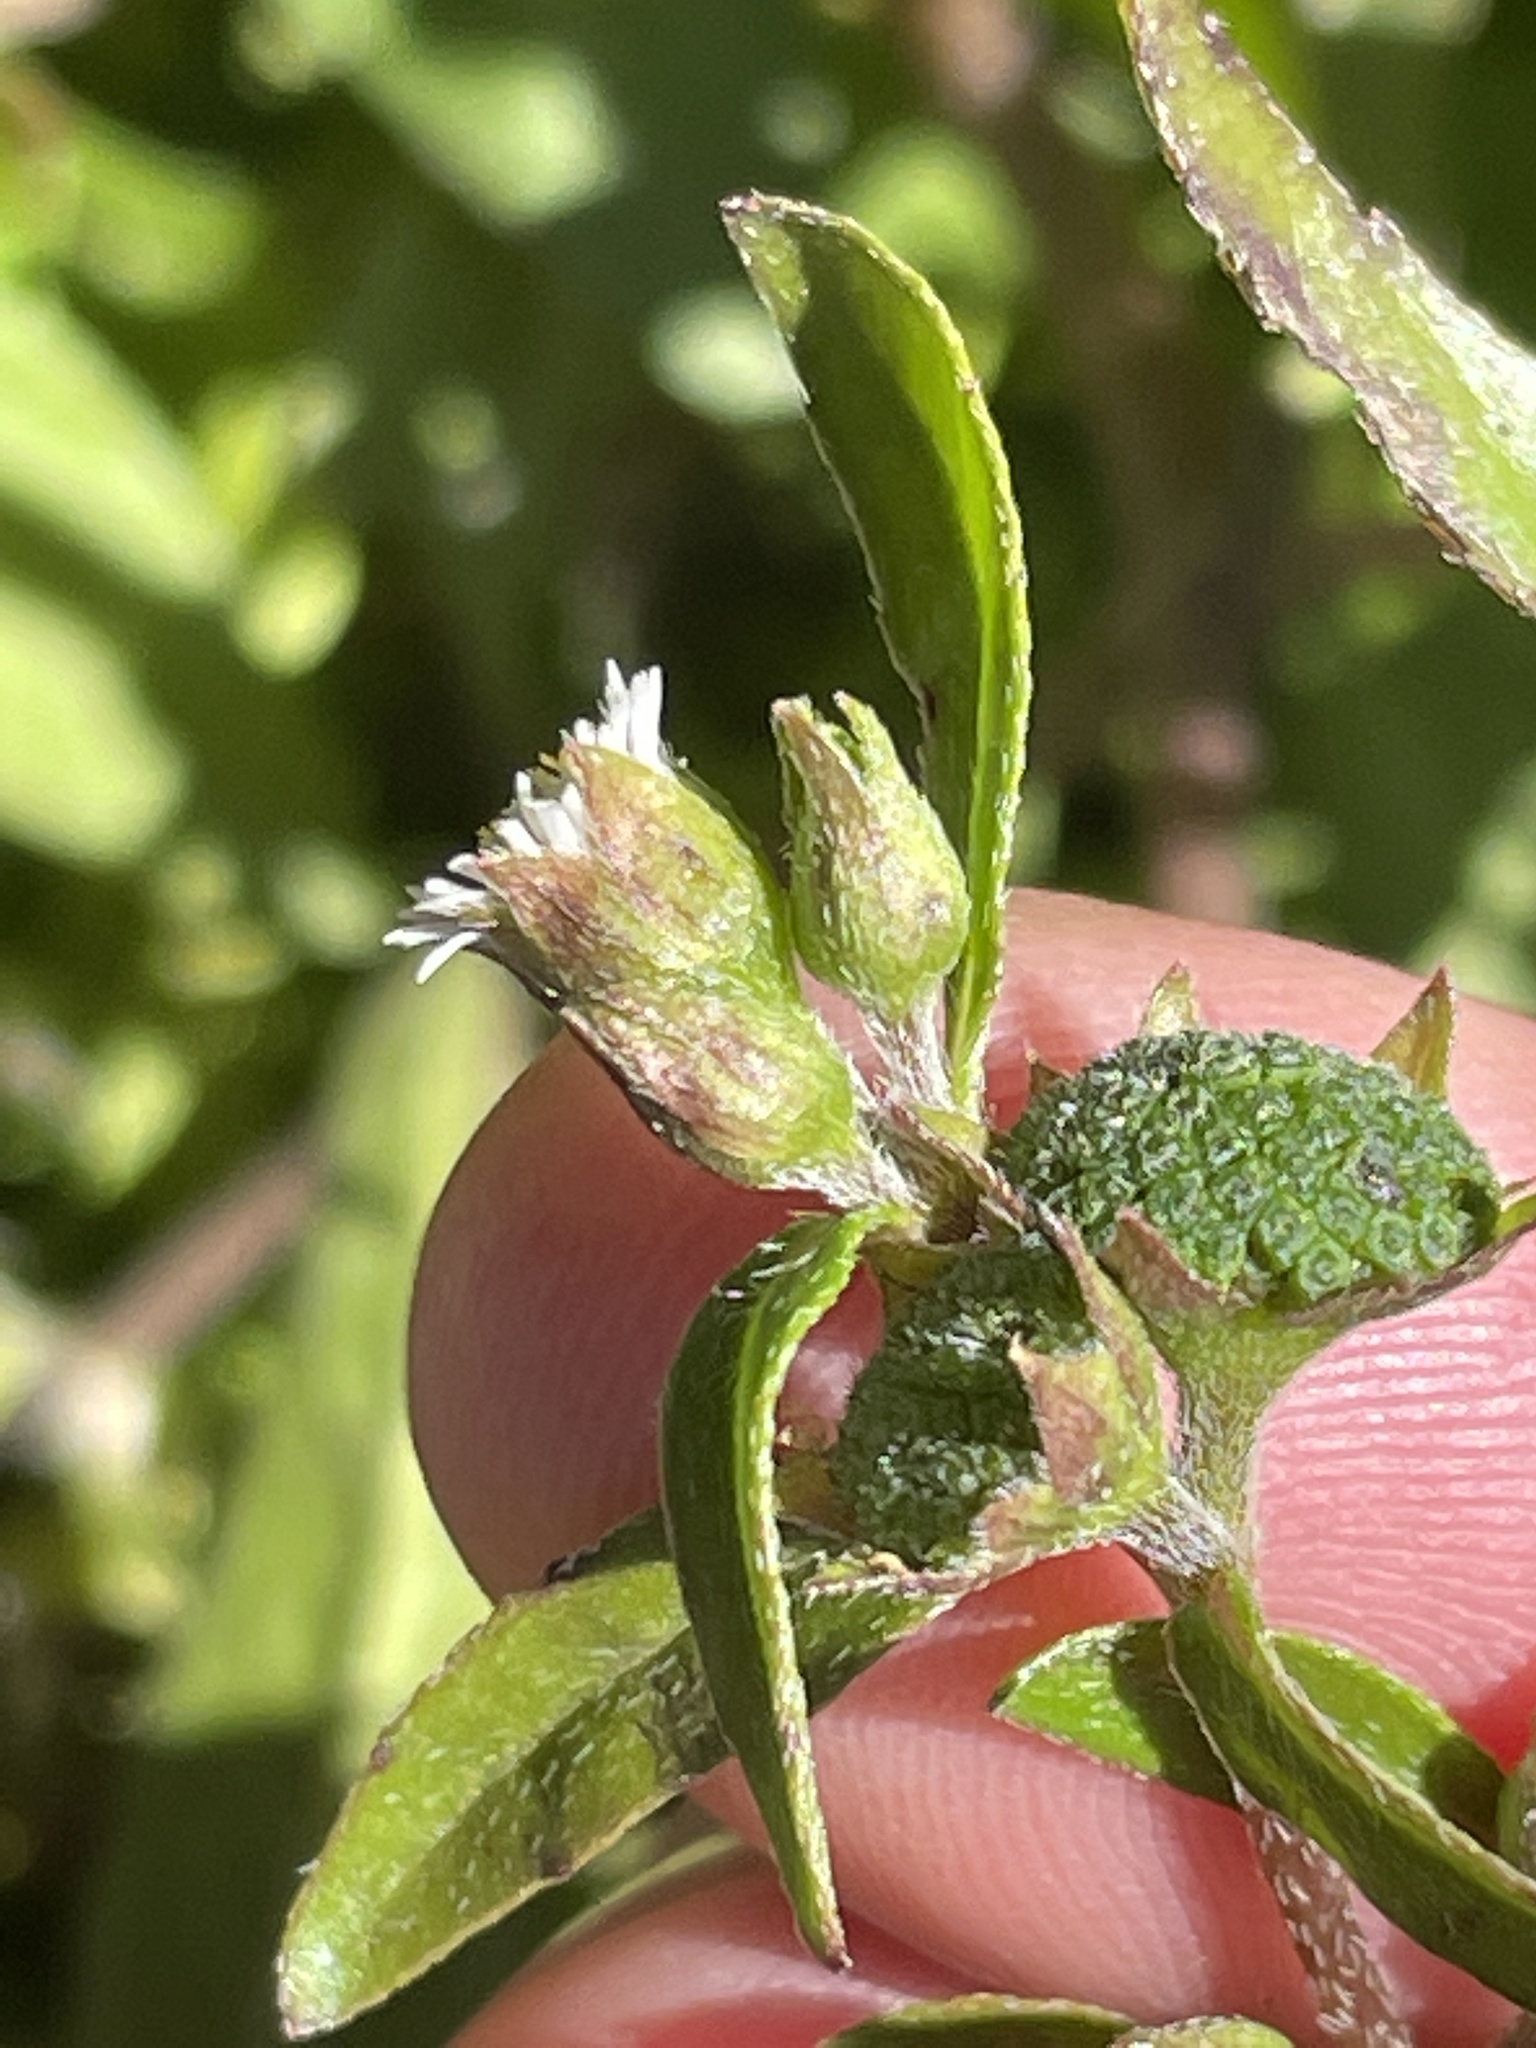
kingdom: Plantae
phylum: Tracheophyta
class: Magnoliopsida
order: Asterales
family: Asteraceae
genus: Eclipta
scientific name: Eclipta prostrata
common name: False daisy
